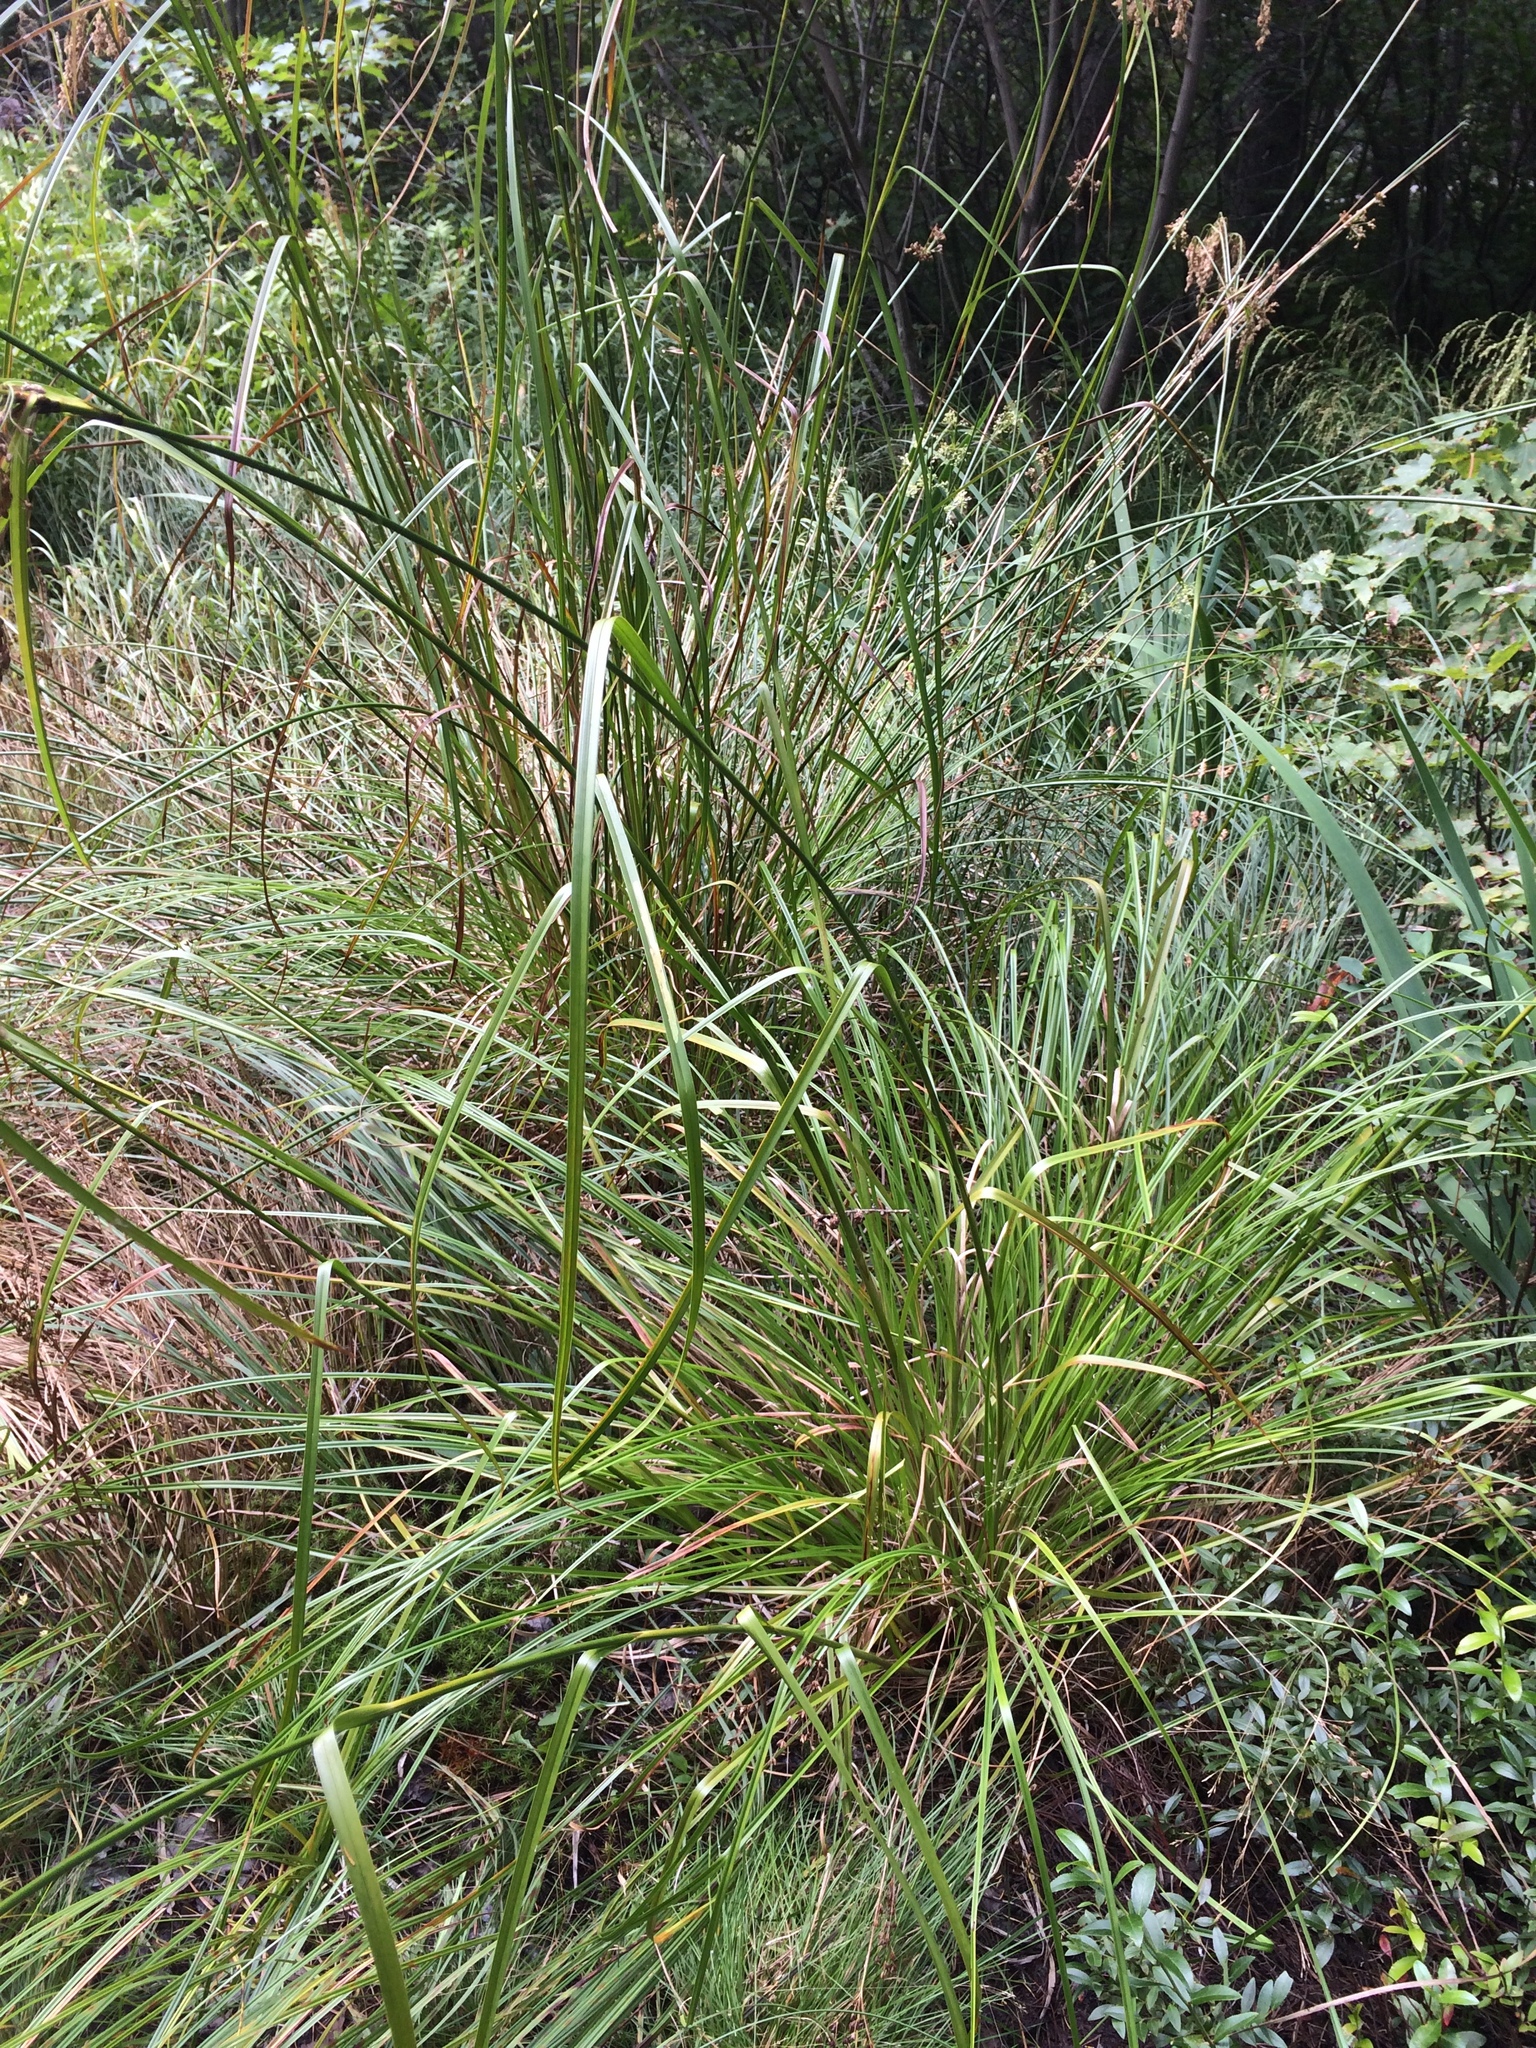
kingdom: Plantae
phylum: Tracheophyta
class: Liliopsida
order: Poales
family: Cyperaceae
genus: Scirpus
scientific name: Scirpus pendulus
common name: Nodding bulrush
